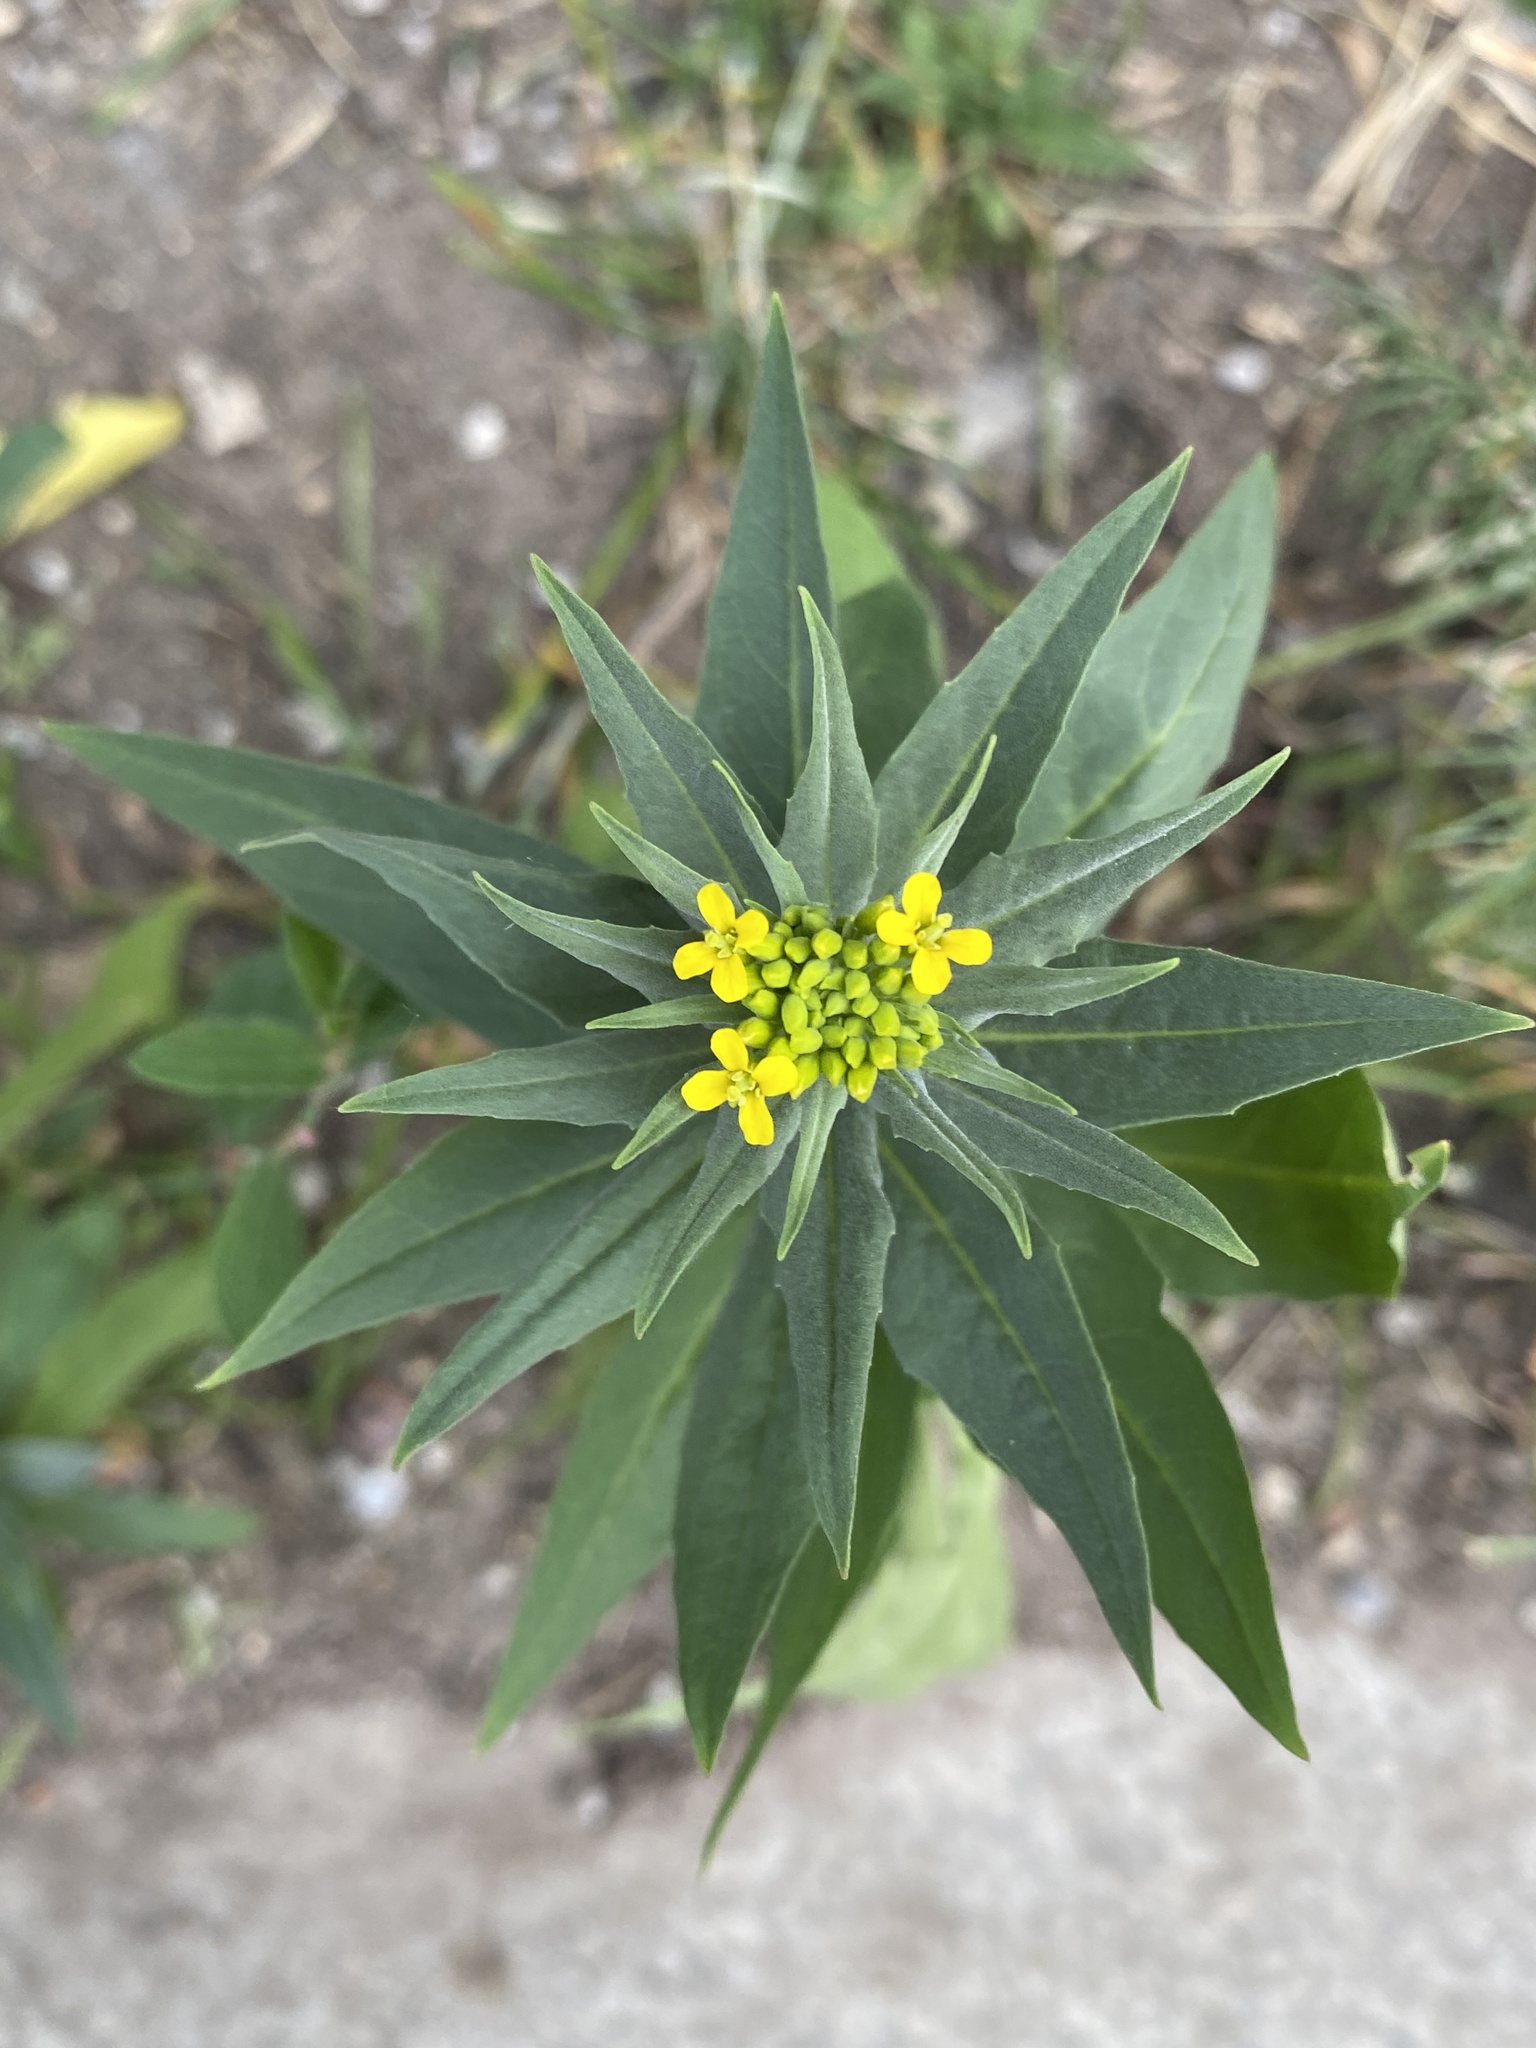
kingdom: Plantae
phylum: Tracheophyta
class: Magnoliopsida
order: Brassicales
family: Brassicaceae
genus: Erysimum
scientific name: Erysimum cheiranthoides
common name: Treacle mustard
